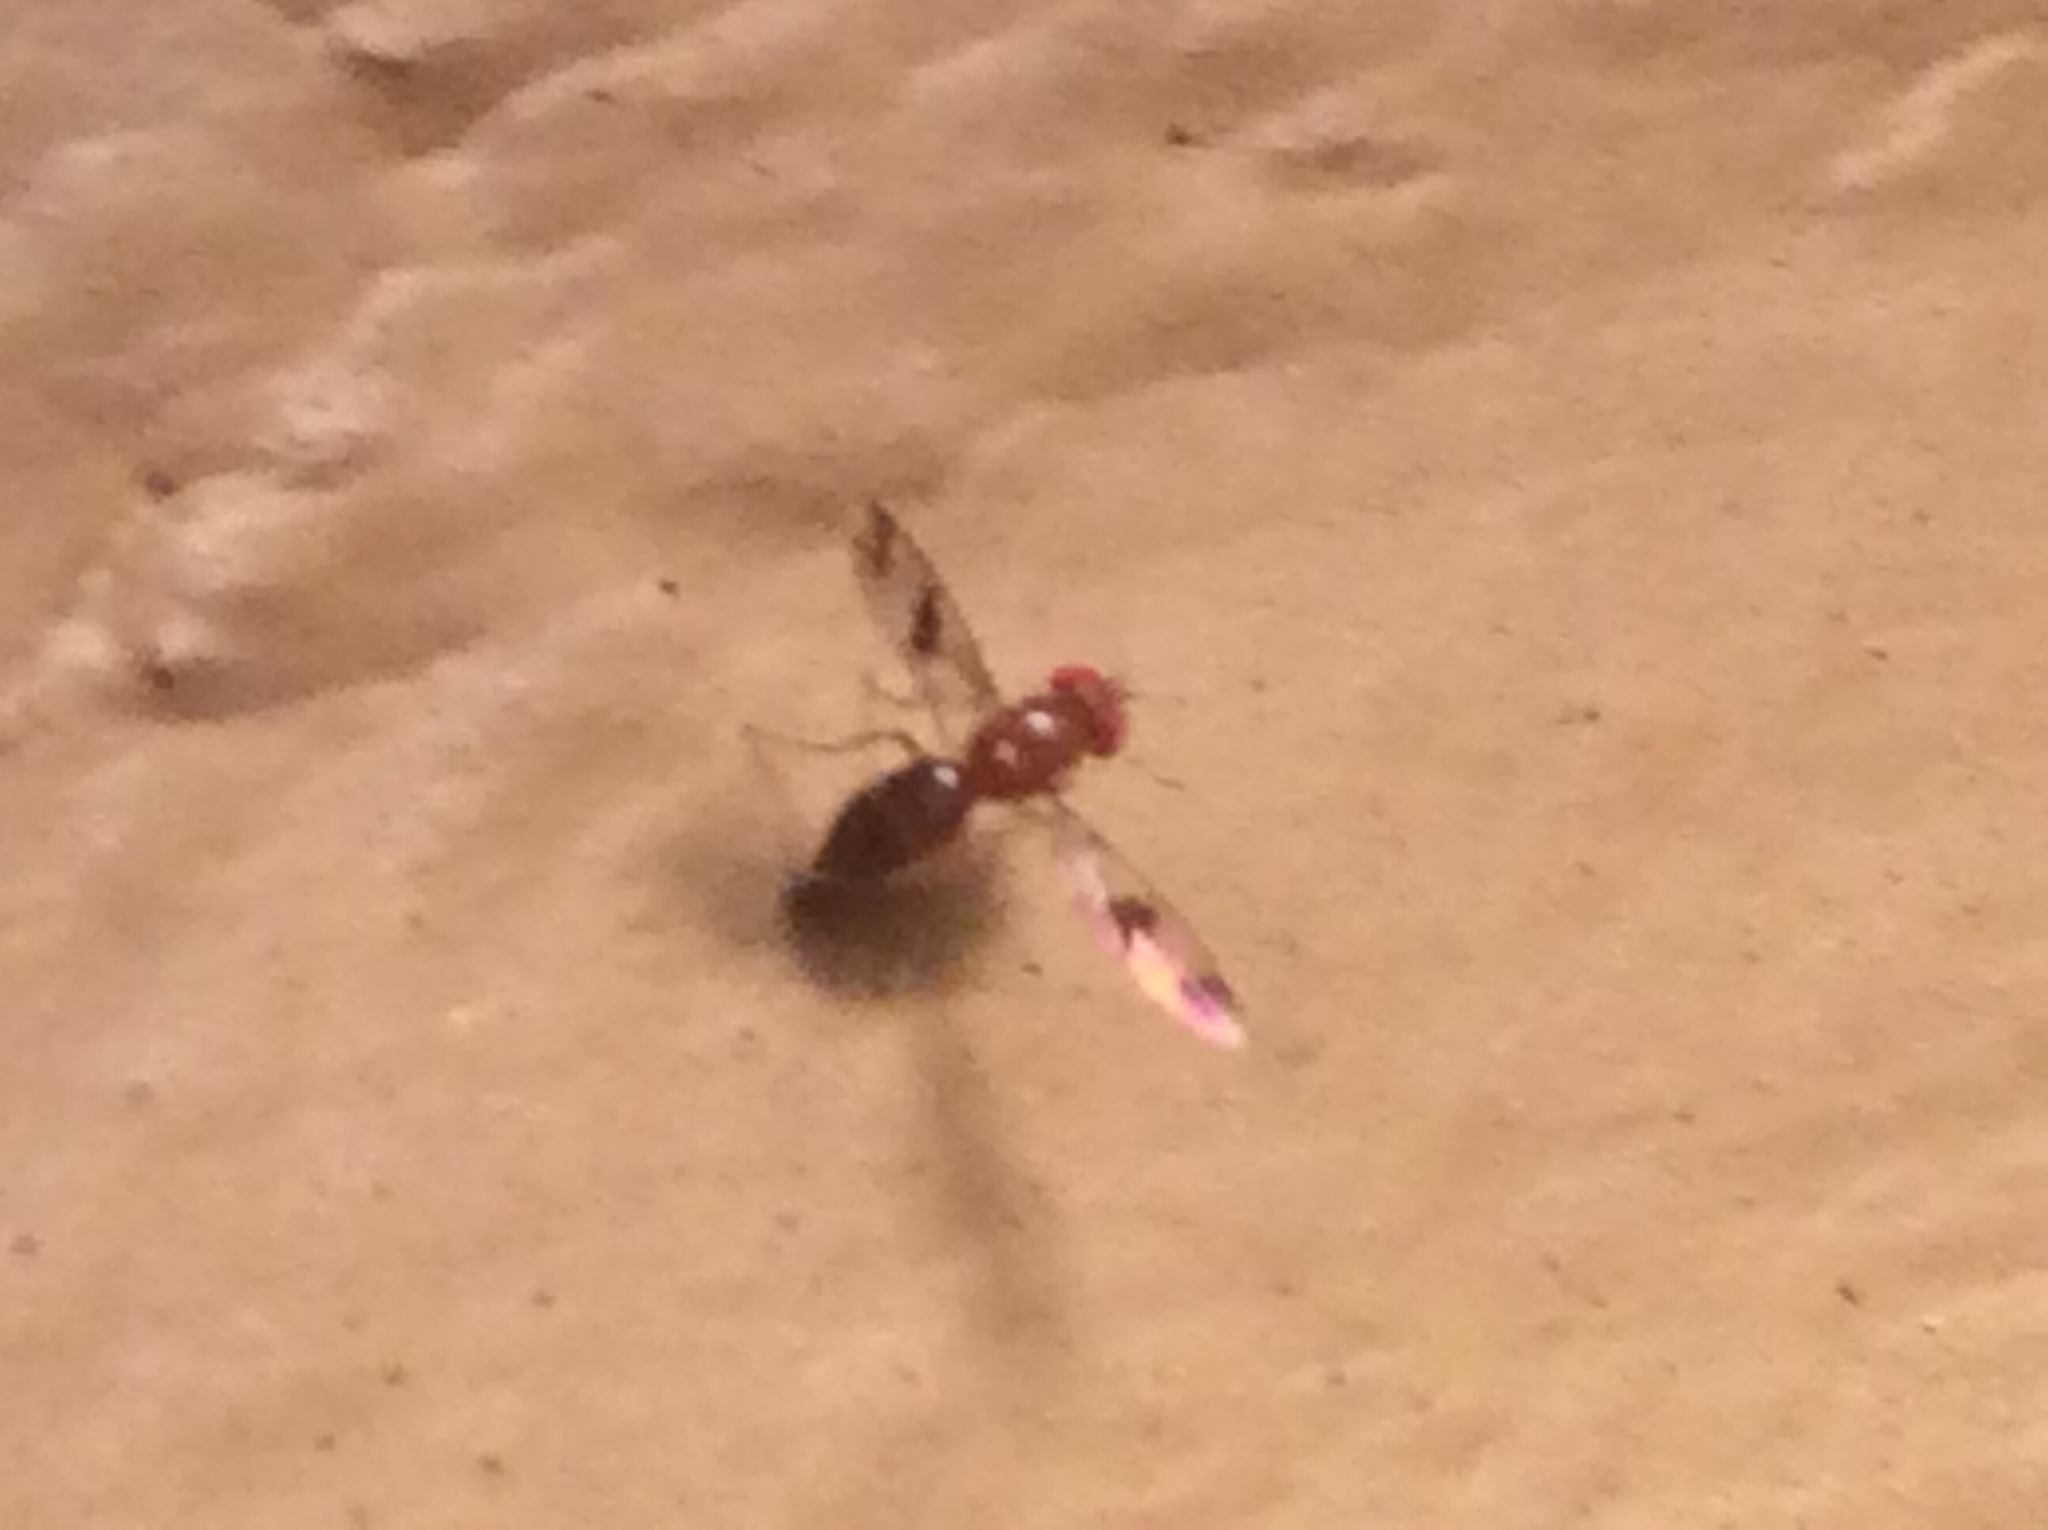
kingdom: Animalia
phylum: Arthropoda
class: Insecta
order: Diptera
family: Drosophilidae
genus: Chymomyza
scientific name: Chymomyza amoena
